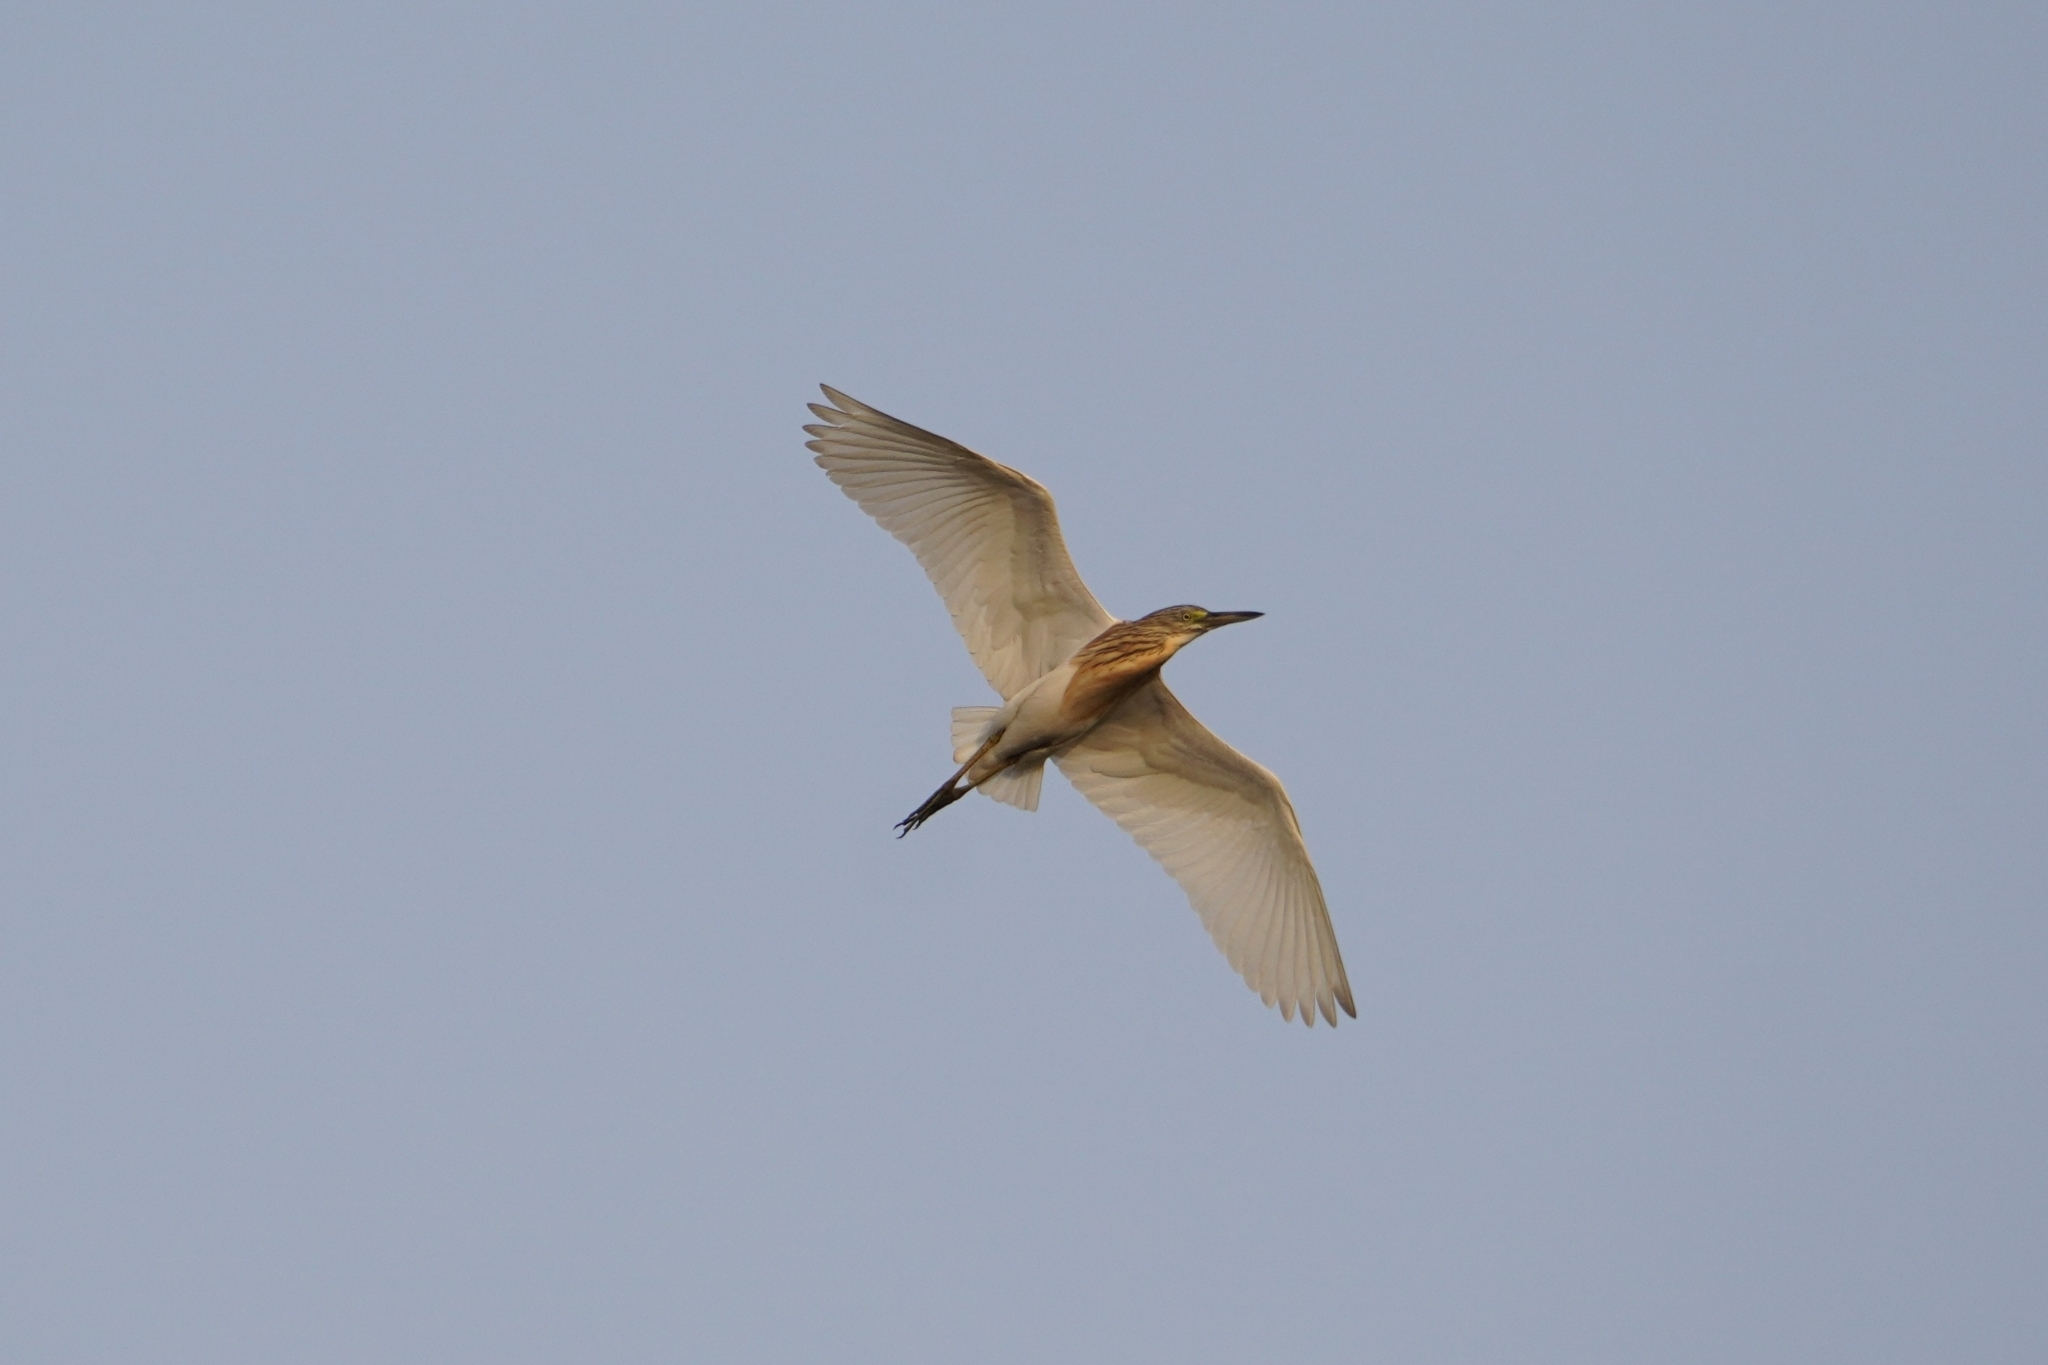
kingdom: Animalia
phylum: Chordata
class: Aves
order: Pelecaniformes
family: Ardeidae
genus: Ardeola
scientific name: Ardeola ralloides
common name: Squacco heron
